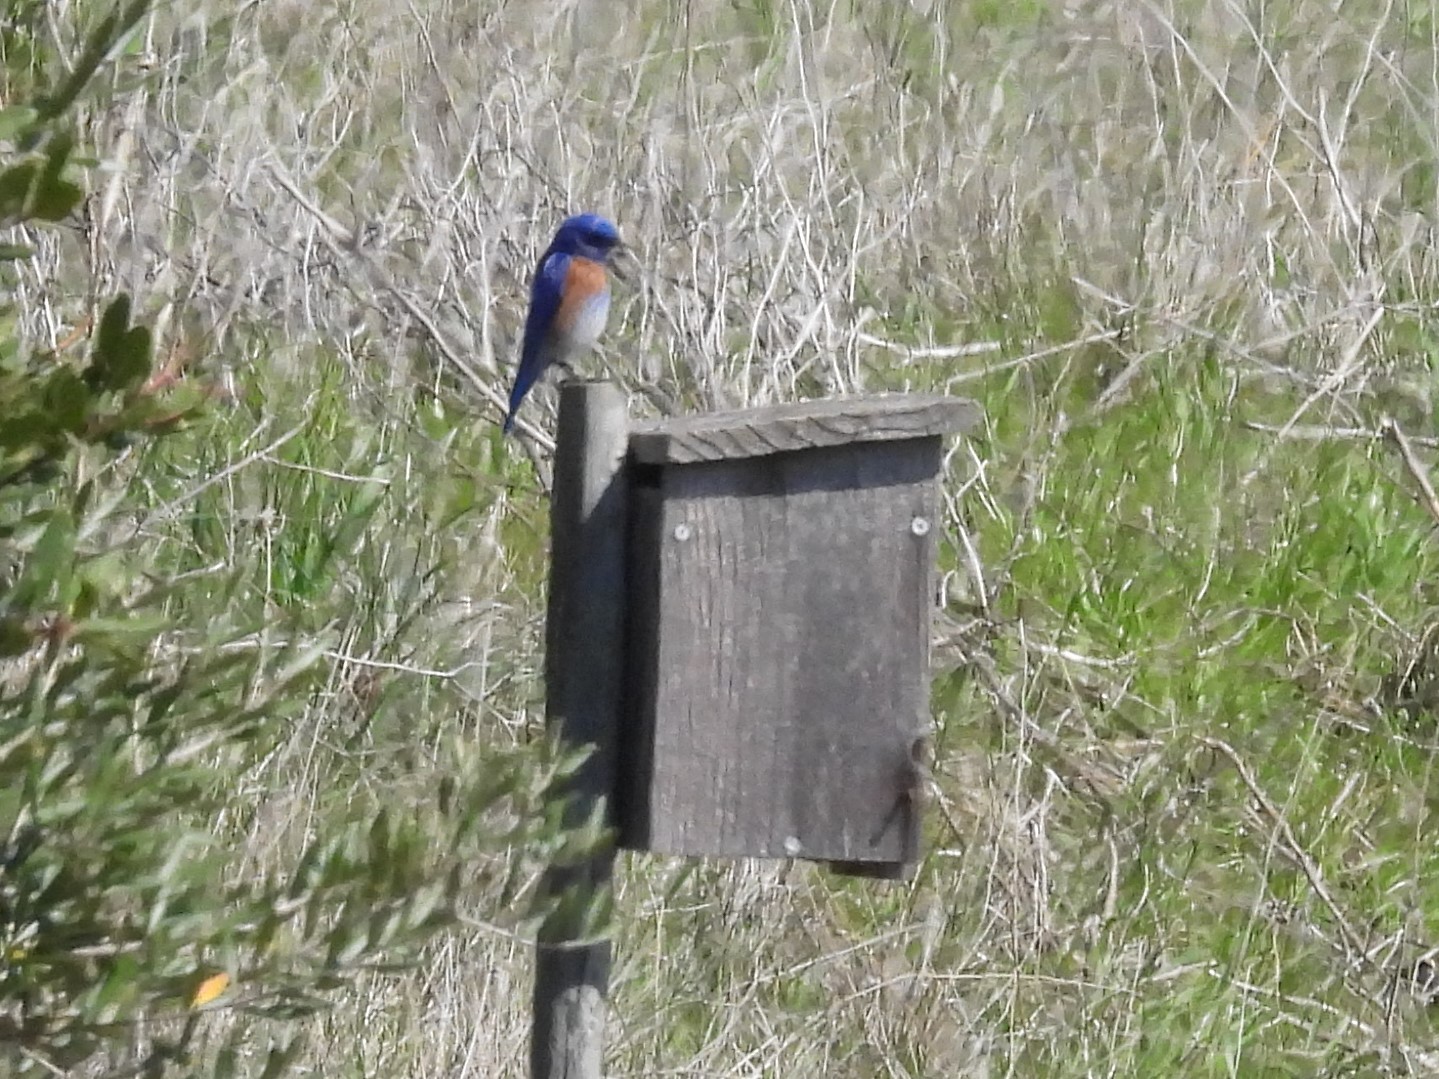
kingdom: Animalia
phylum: Chordata
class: Aves
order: Passeriformes
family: Turdidae
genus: Sialia
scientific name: Sialia mexicana
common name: Western bluebird
